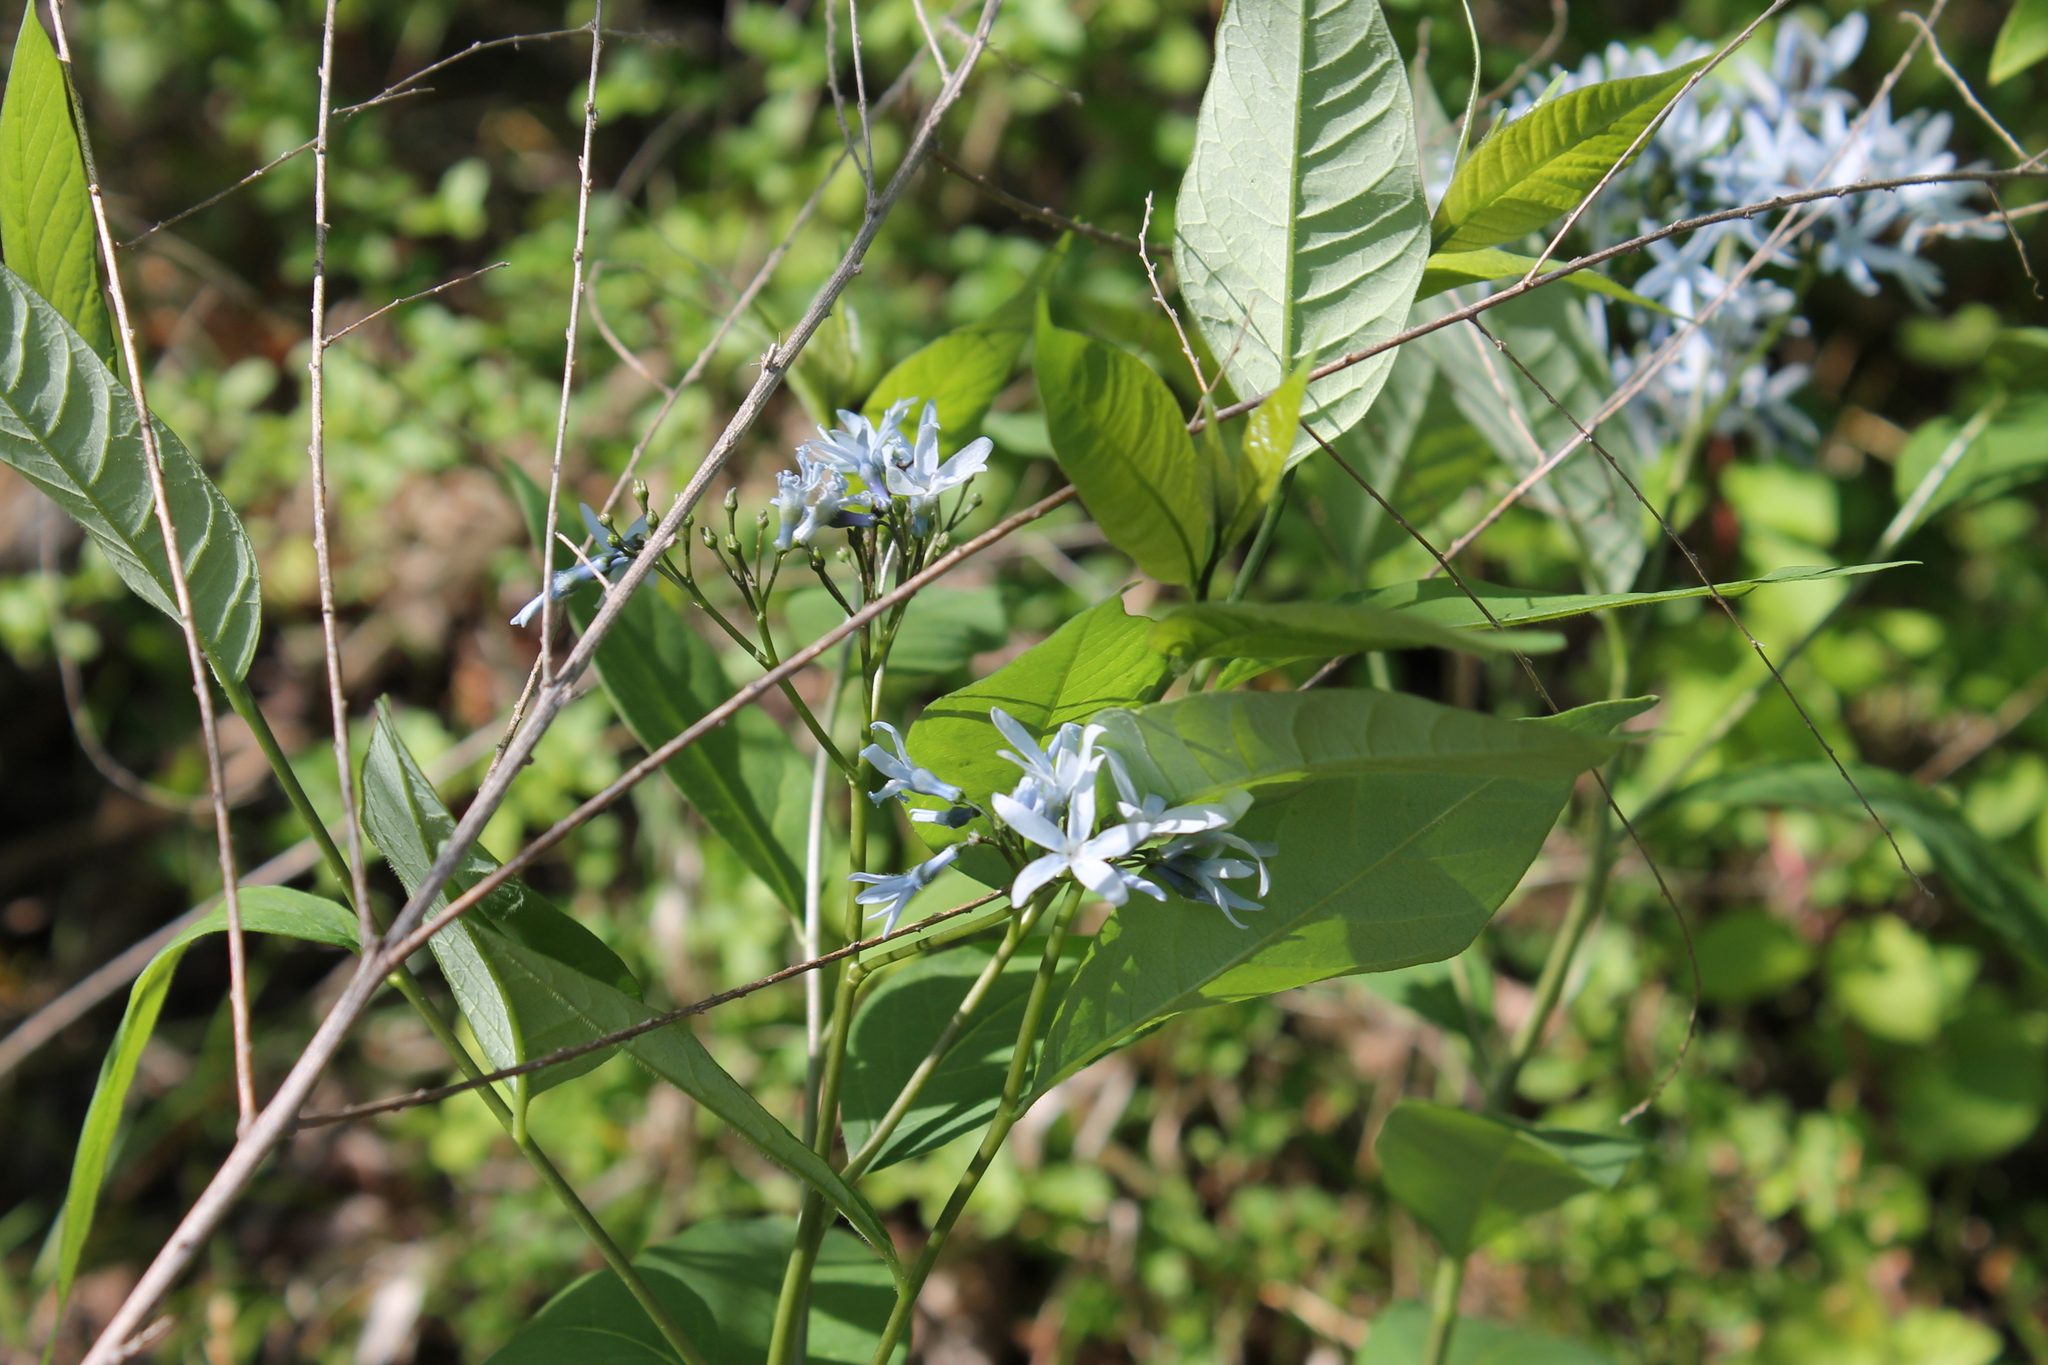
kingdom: Plantae
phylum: Tracheophyta
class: Magnoliopsida
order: Gentianales
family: Apocynaceae
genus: Amsonia
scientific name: Amsonia tabernaemontana
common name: Texas-star
